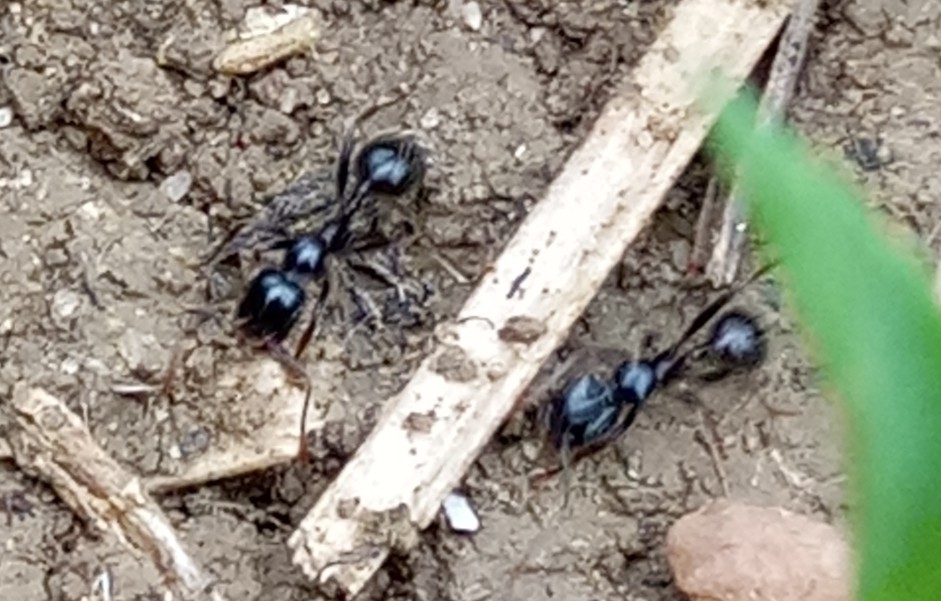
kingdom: Animalia
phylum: Arthropoda
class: Insecta
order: Hymenoptera
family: Formicidae
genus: Messor
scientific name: Messor barbarus
